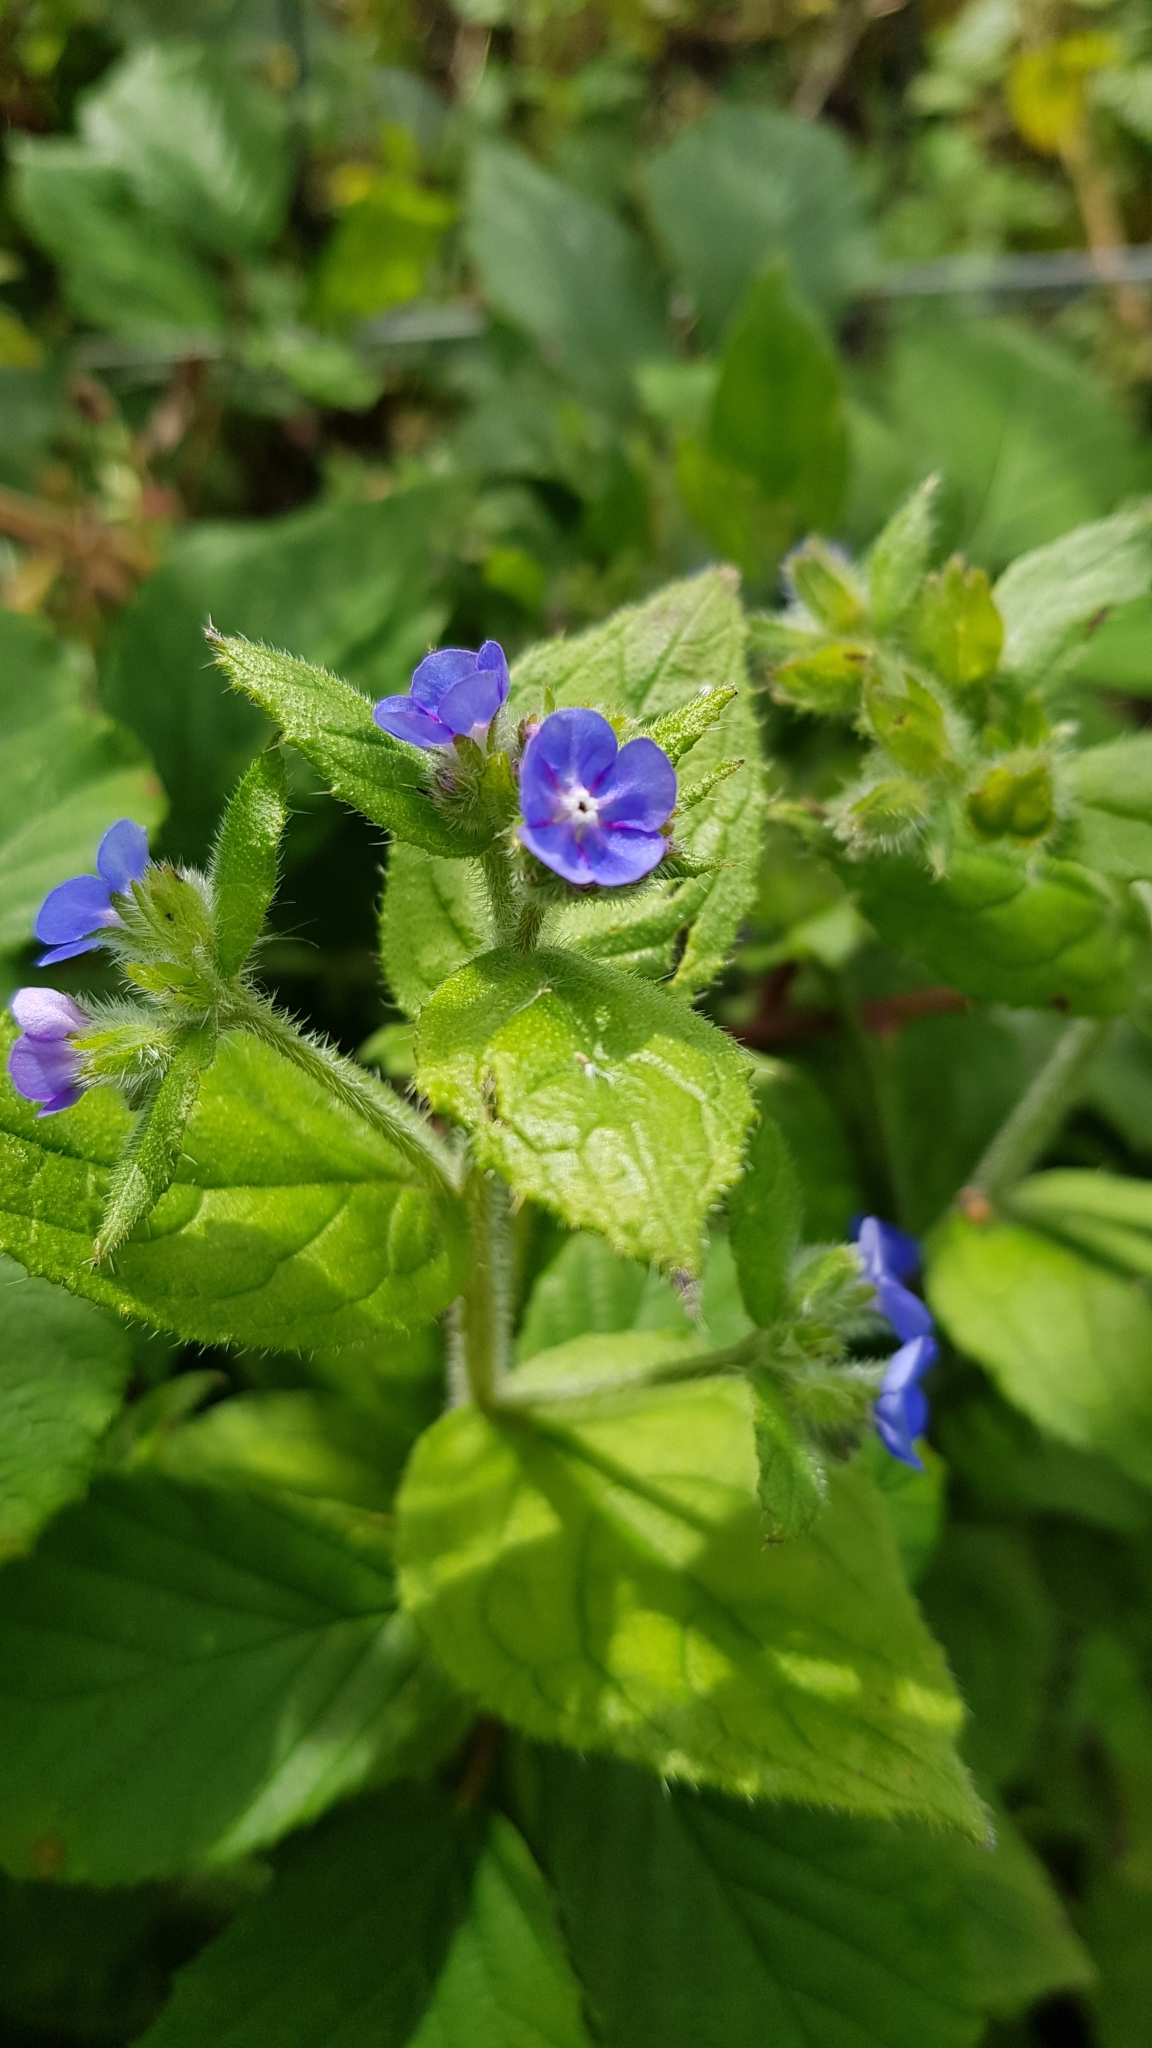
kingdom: Plantae
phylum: Tracheophyta
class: Magnoliopsida
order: Boraginales
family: Boraginaceae
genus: Pentaglottis
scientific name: Pentaglottis sempervirens
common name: Green alkanet
